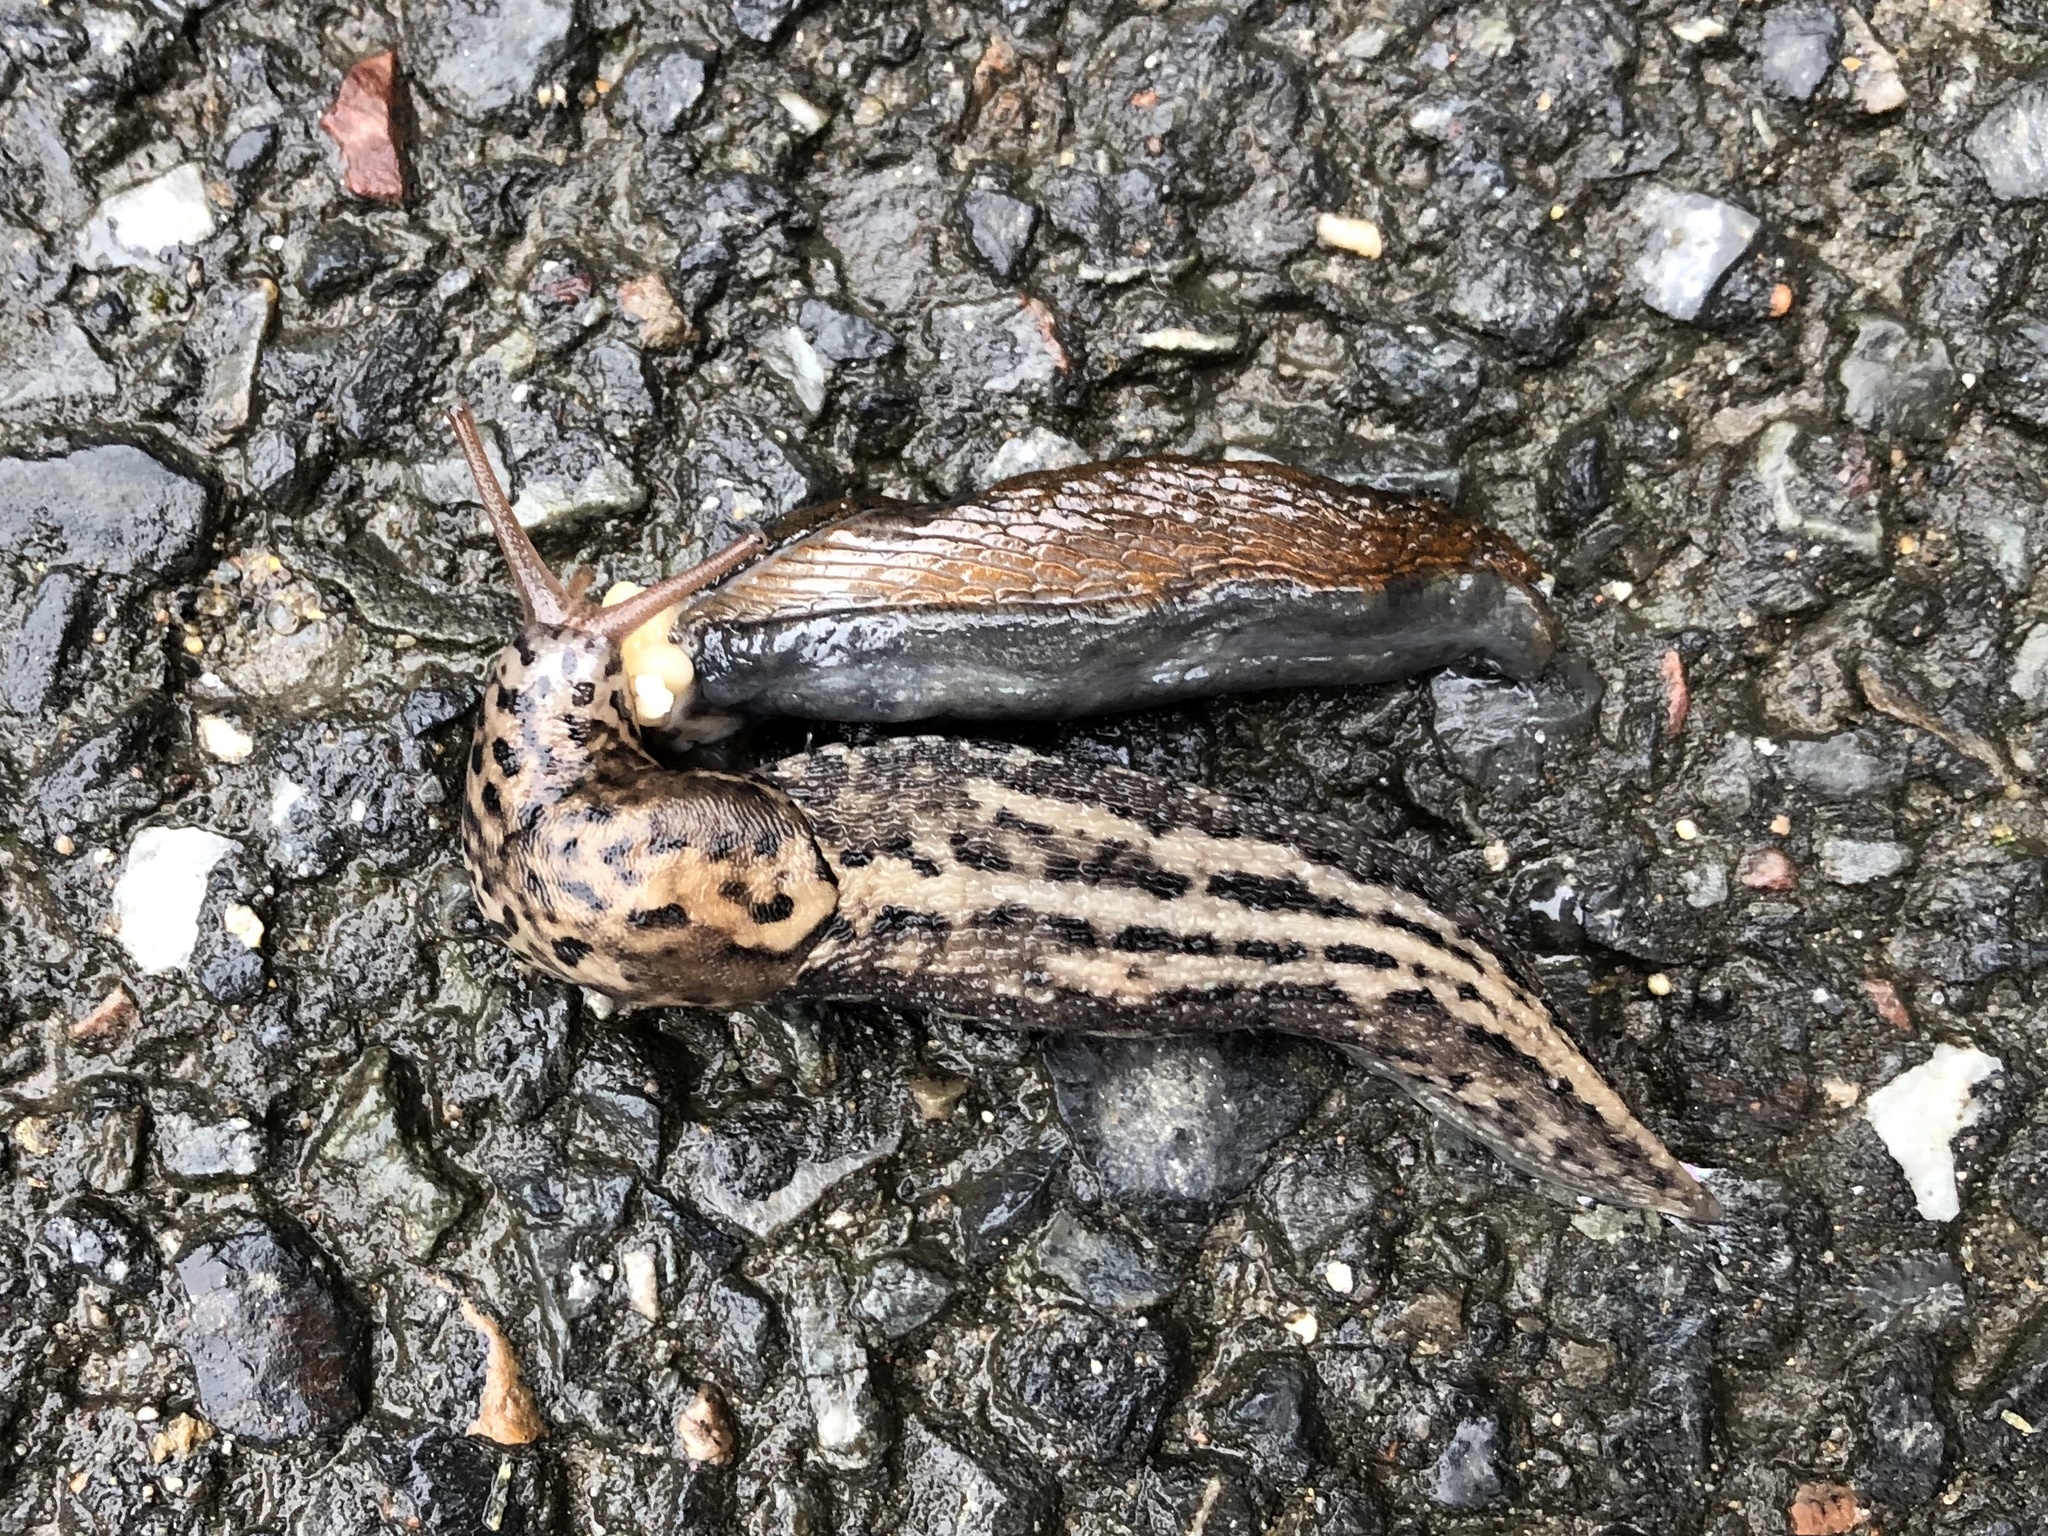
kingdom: Animalia
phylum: Mollusca
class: Gastropoda
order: Stylommatophora
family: Limacidae
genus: Limax
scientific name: Limax maximus
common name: Great grey slug
